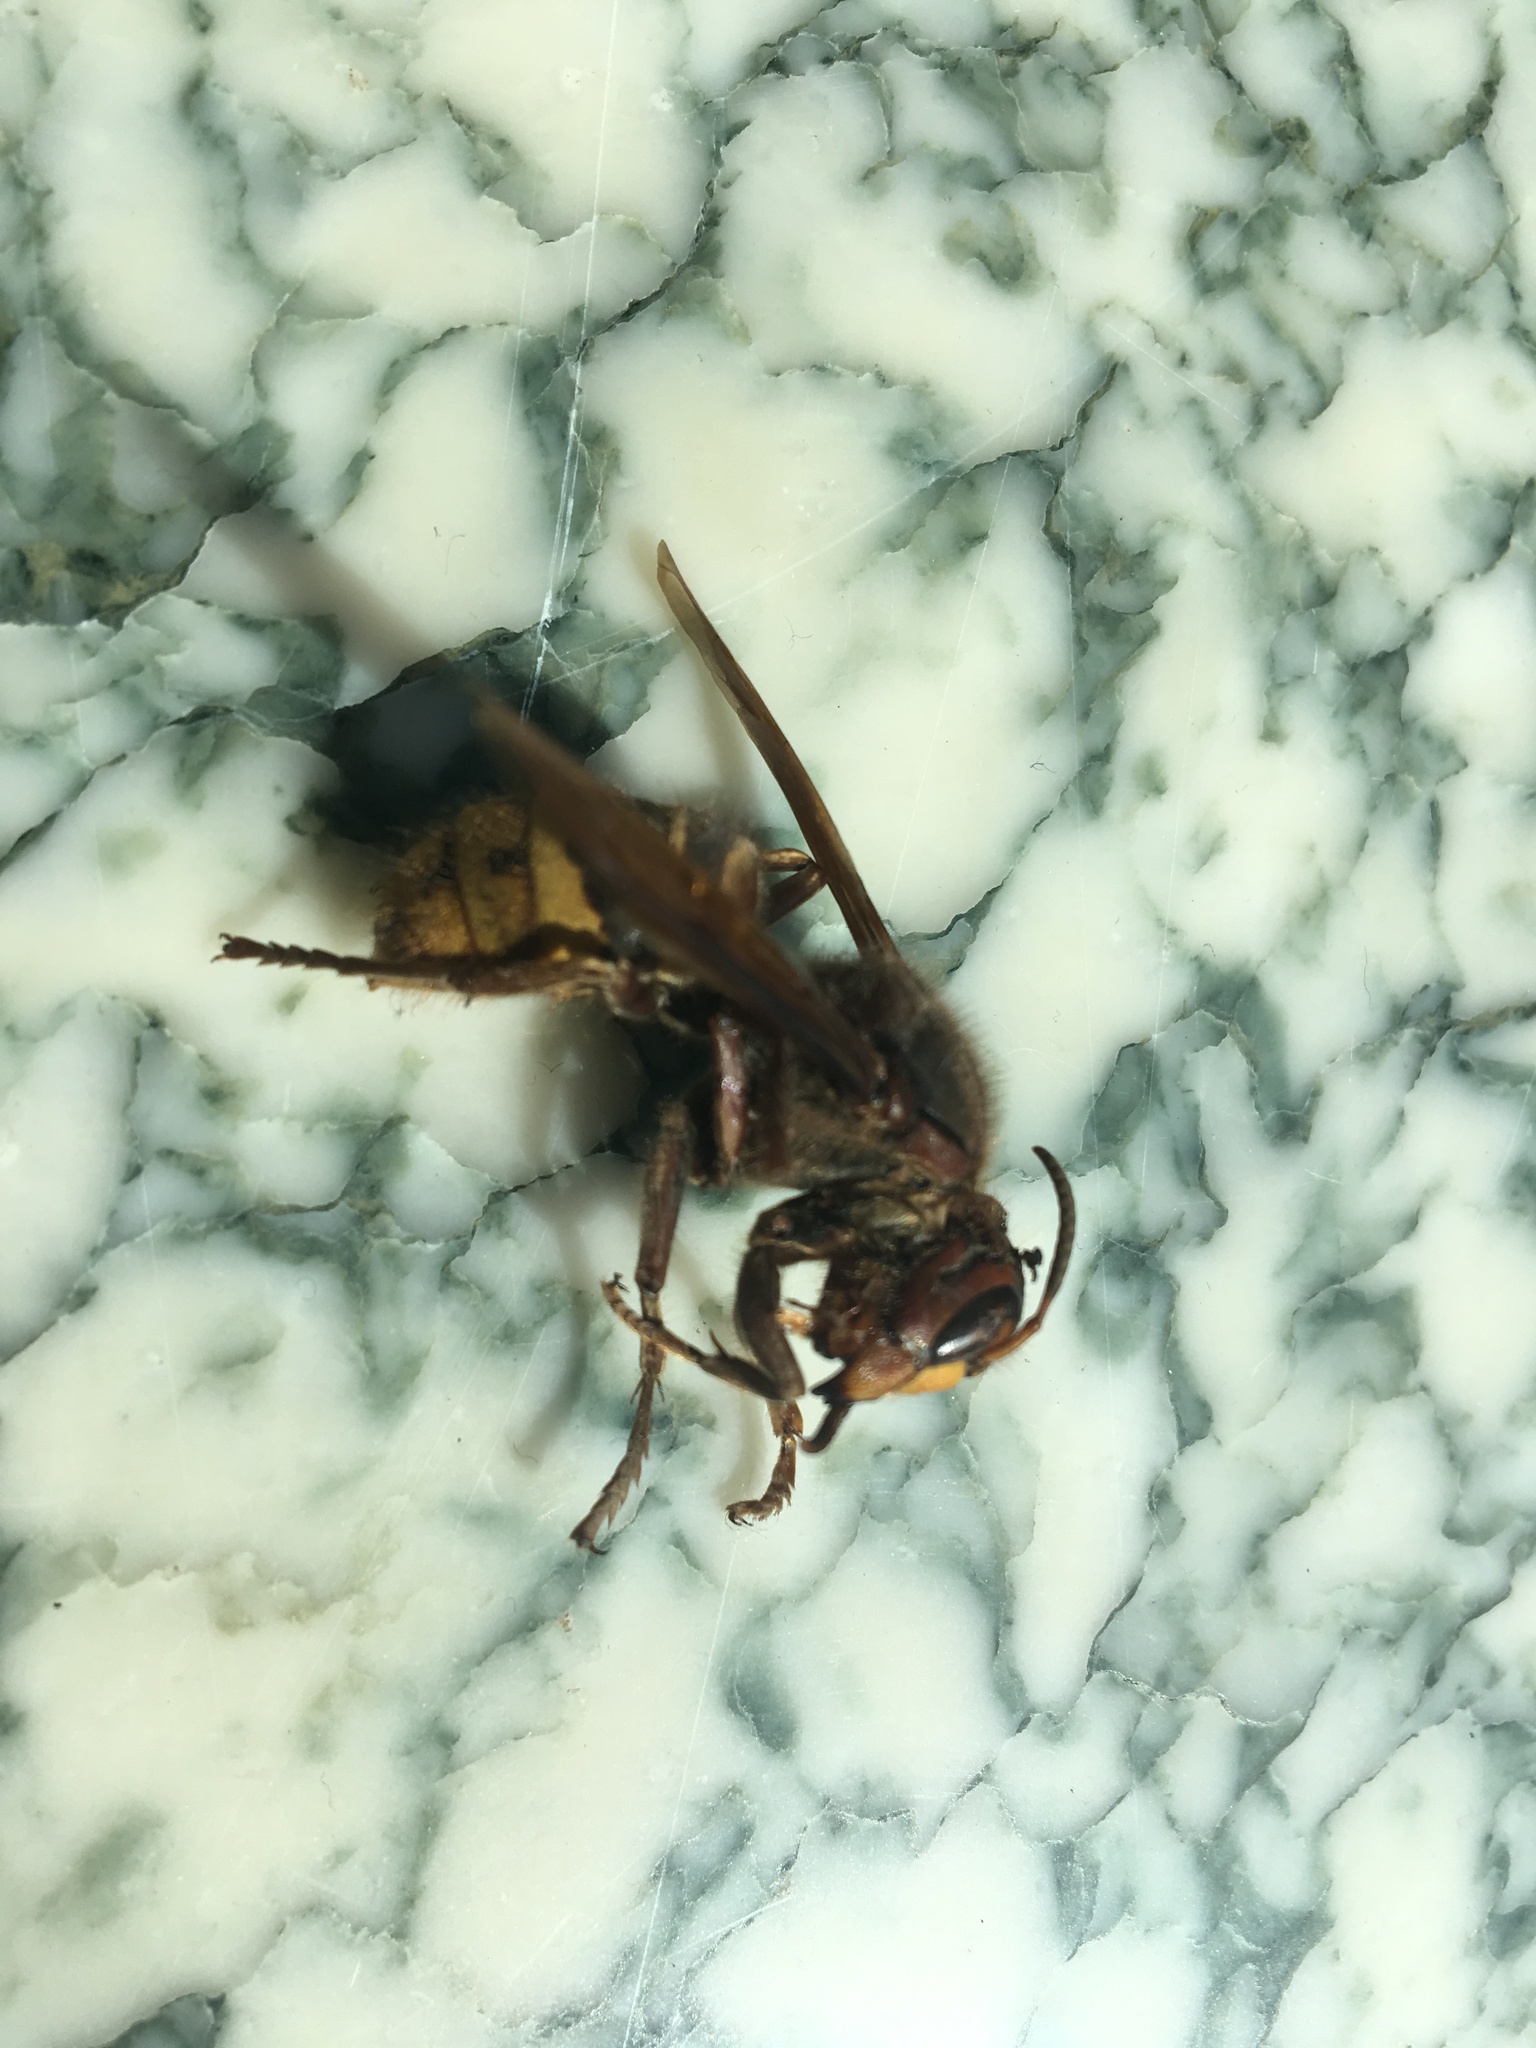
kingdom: Animalia
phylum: Arthropoda
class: Insecta
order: Hymenoptera
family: Vespidae
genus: Vespa
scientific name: Vespa crabro
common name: Hornet
